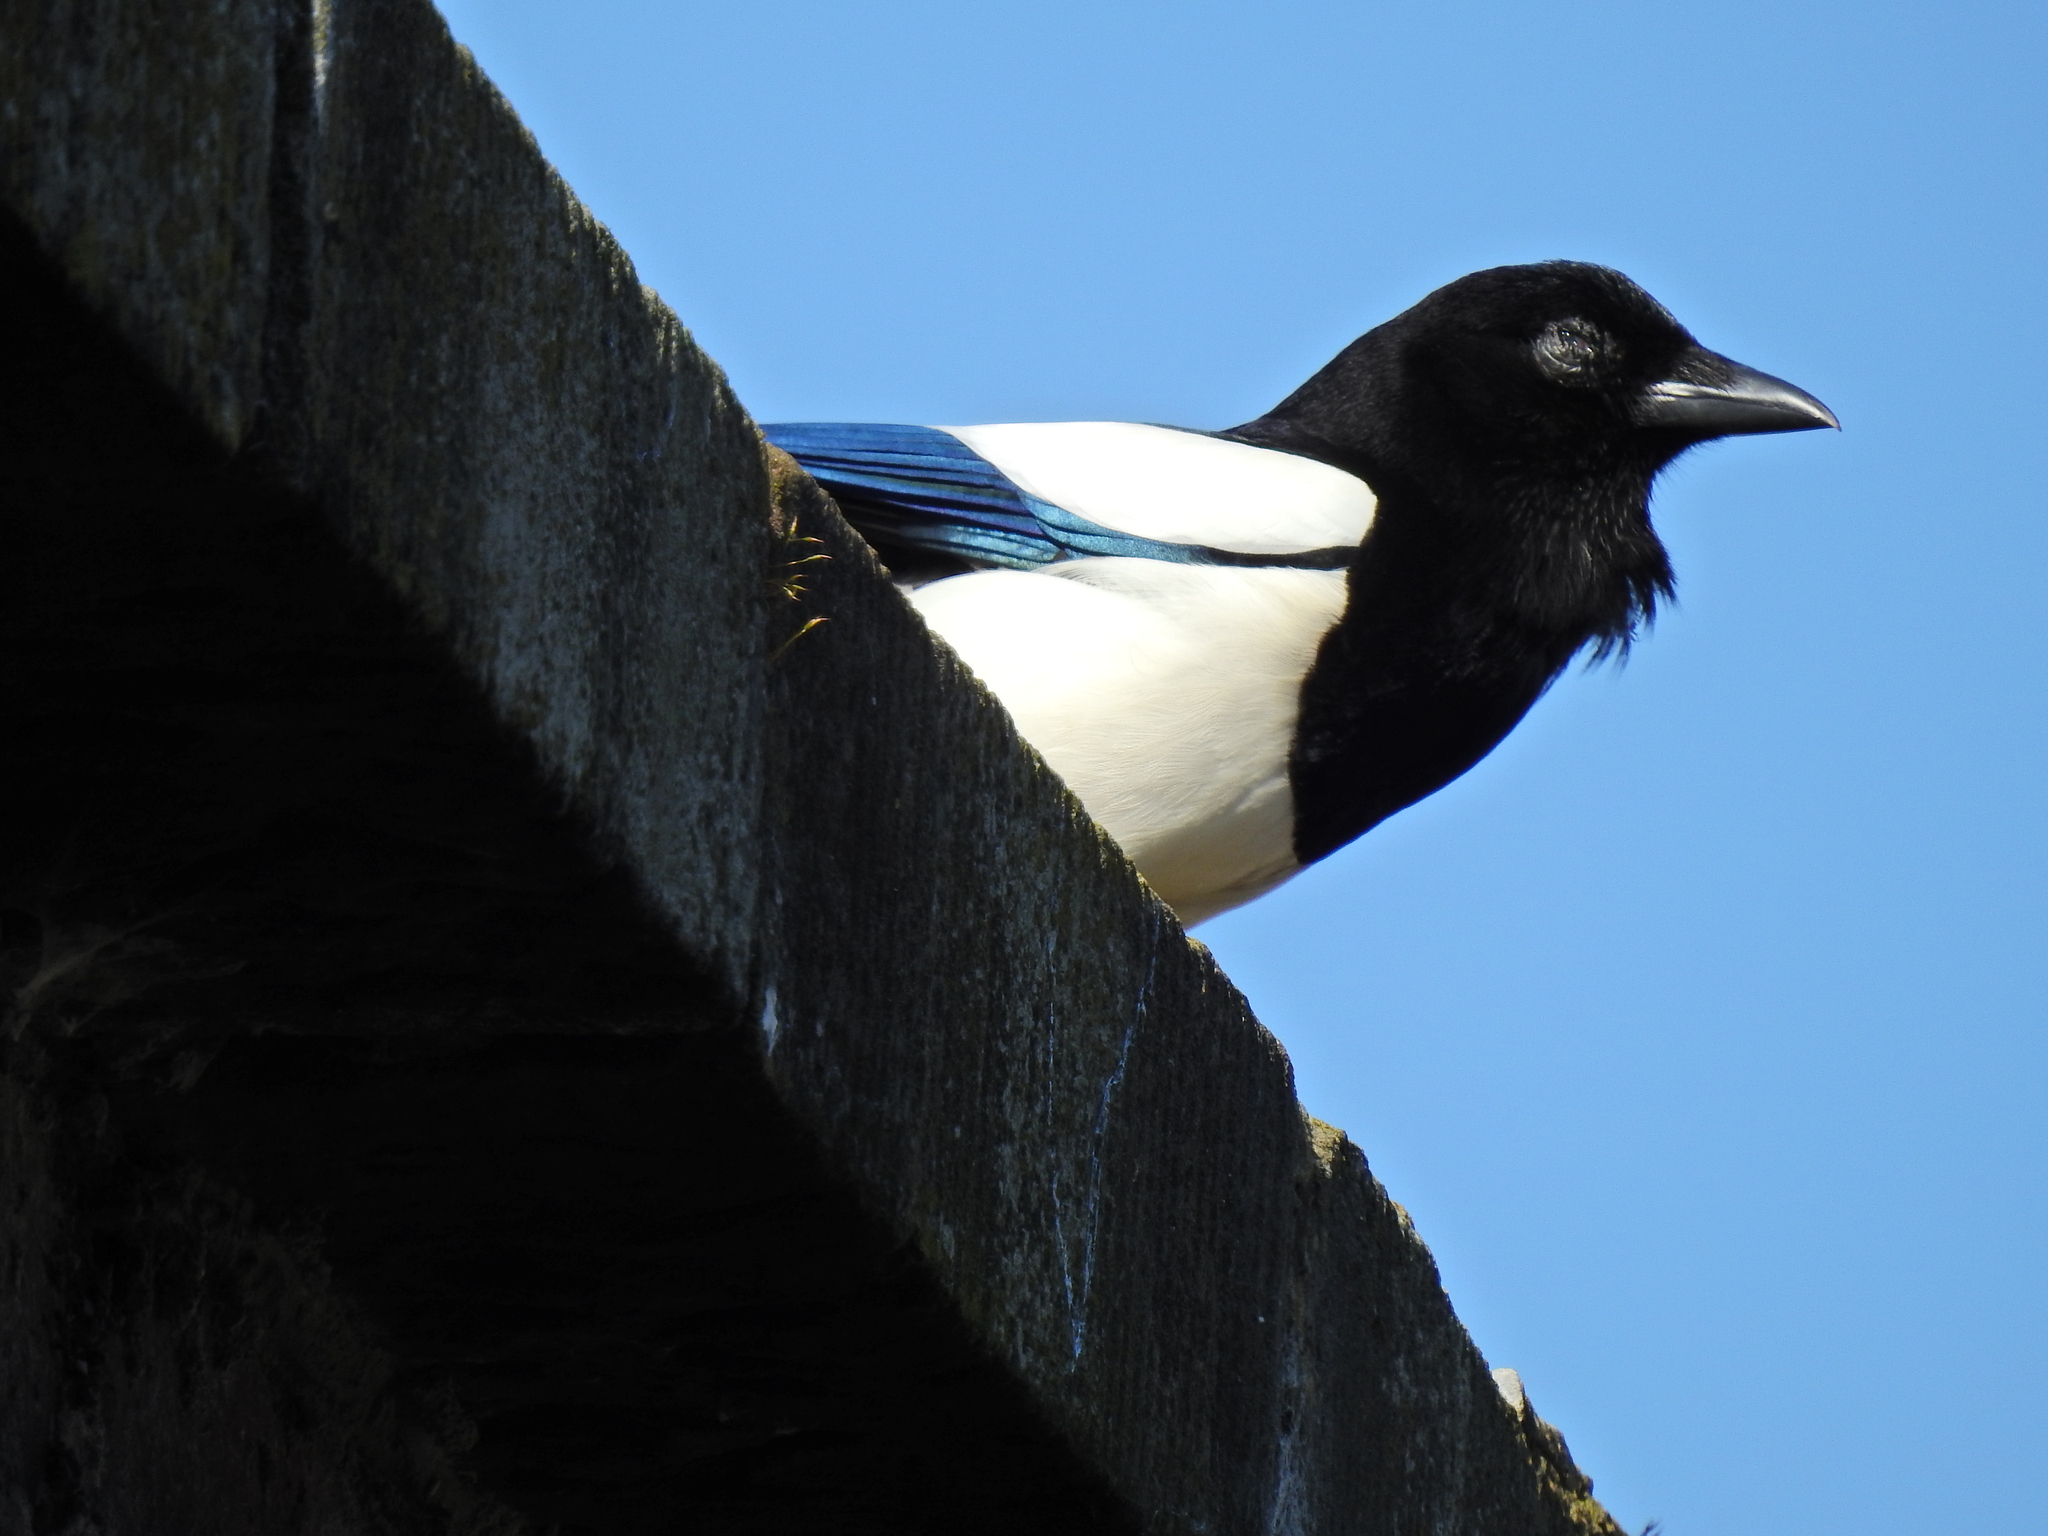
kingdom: Animalia
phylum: Chordata
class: Aves
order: Passeriformes
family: Corvidae
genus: Pica
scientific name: Pica pica
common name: Eurasian magpie
